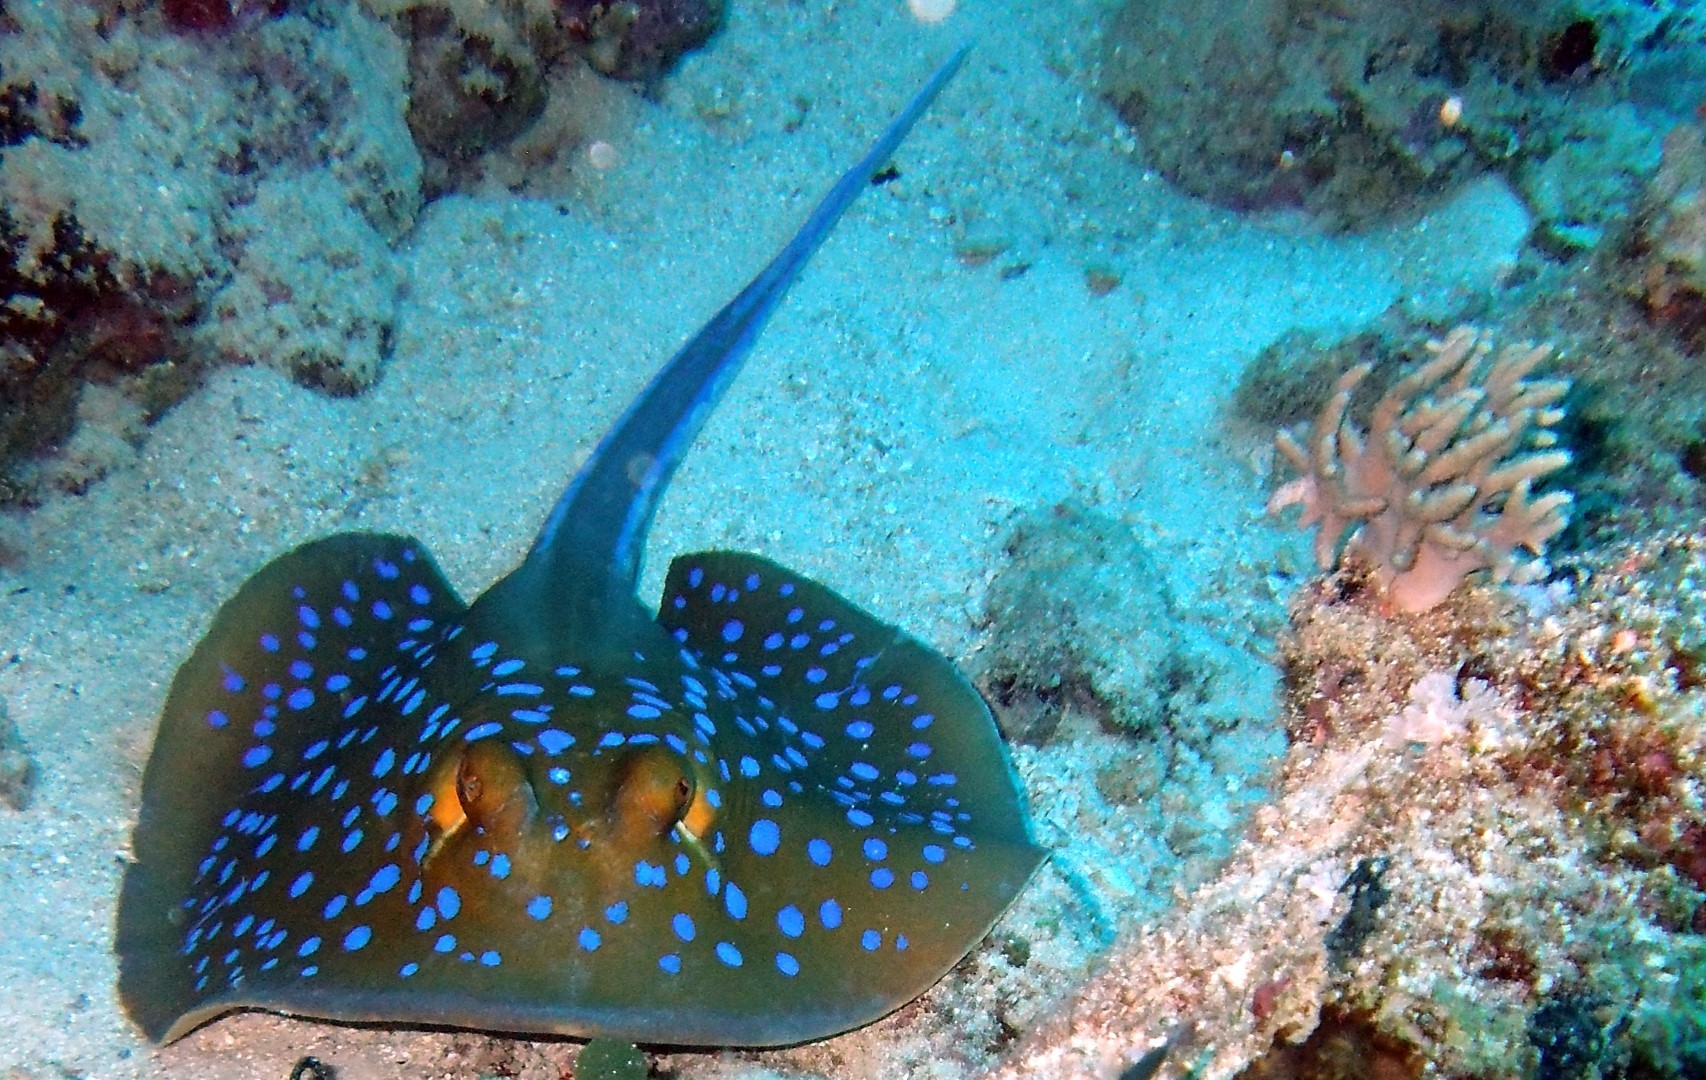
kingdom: Animalia
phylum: Chordata
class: Elasmobranchii
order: Myliobatiformes
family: Dasyatidae
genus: Taeniura
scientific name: Taeniura lymma
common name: Bluespotted ribbontail ray
